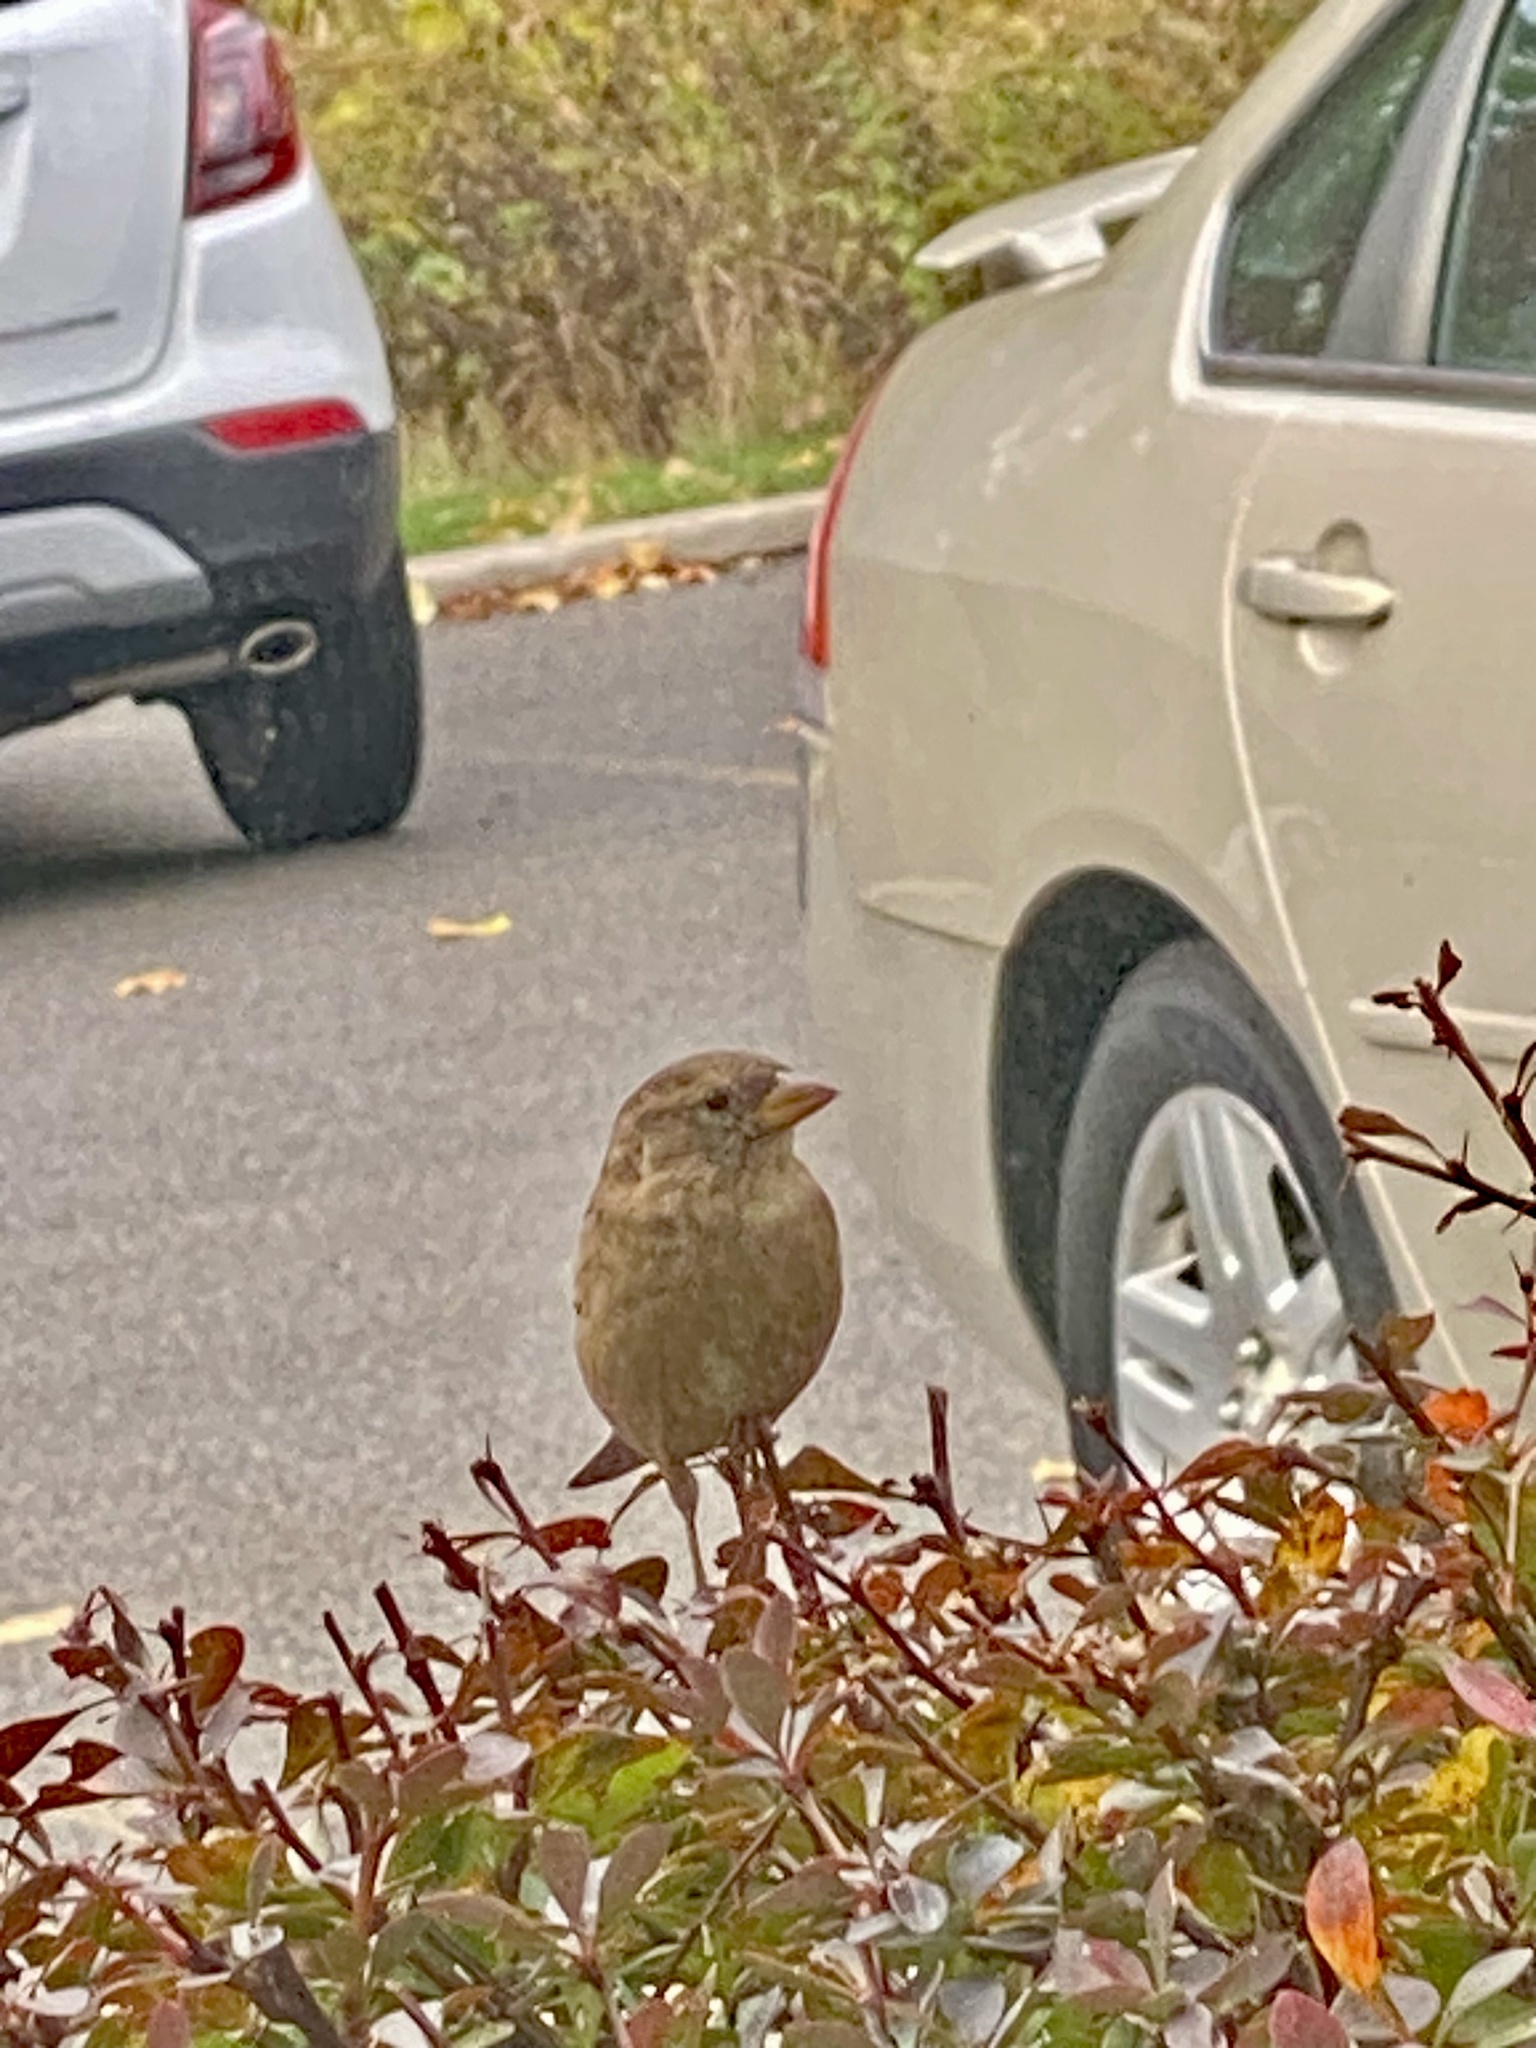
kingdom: Animalia
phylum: Chordata
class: Aves
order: Passeriformes
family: Passeridae
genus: Passer
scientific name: Passer domesticus
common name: House sparrow
